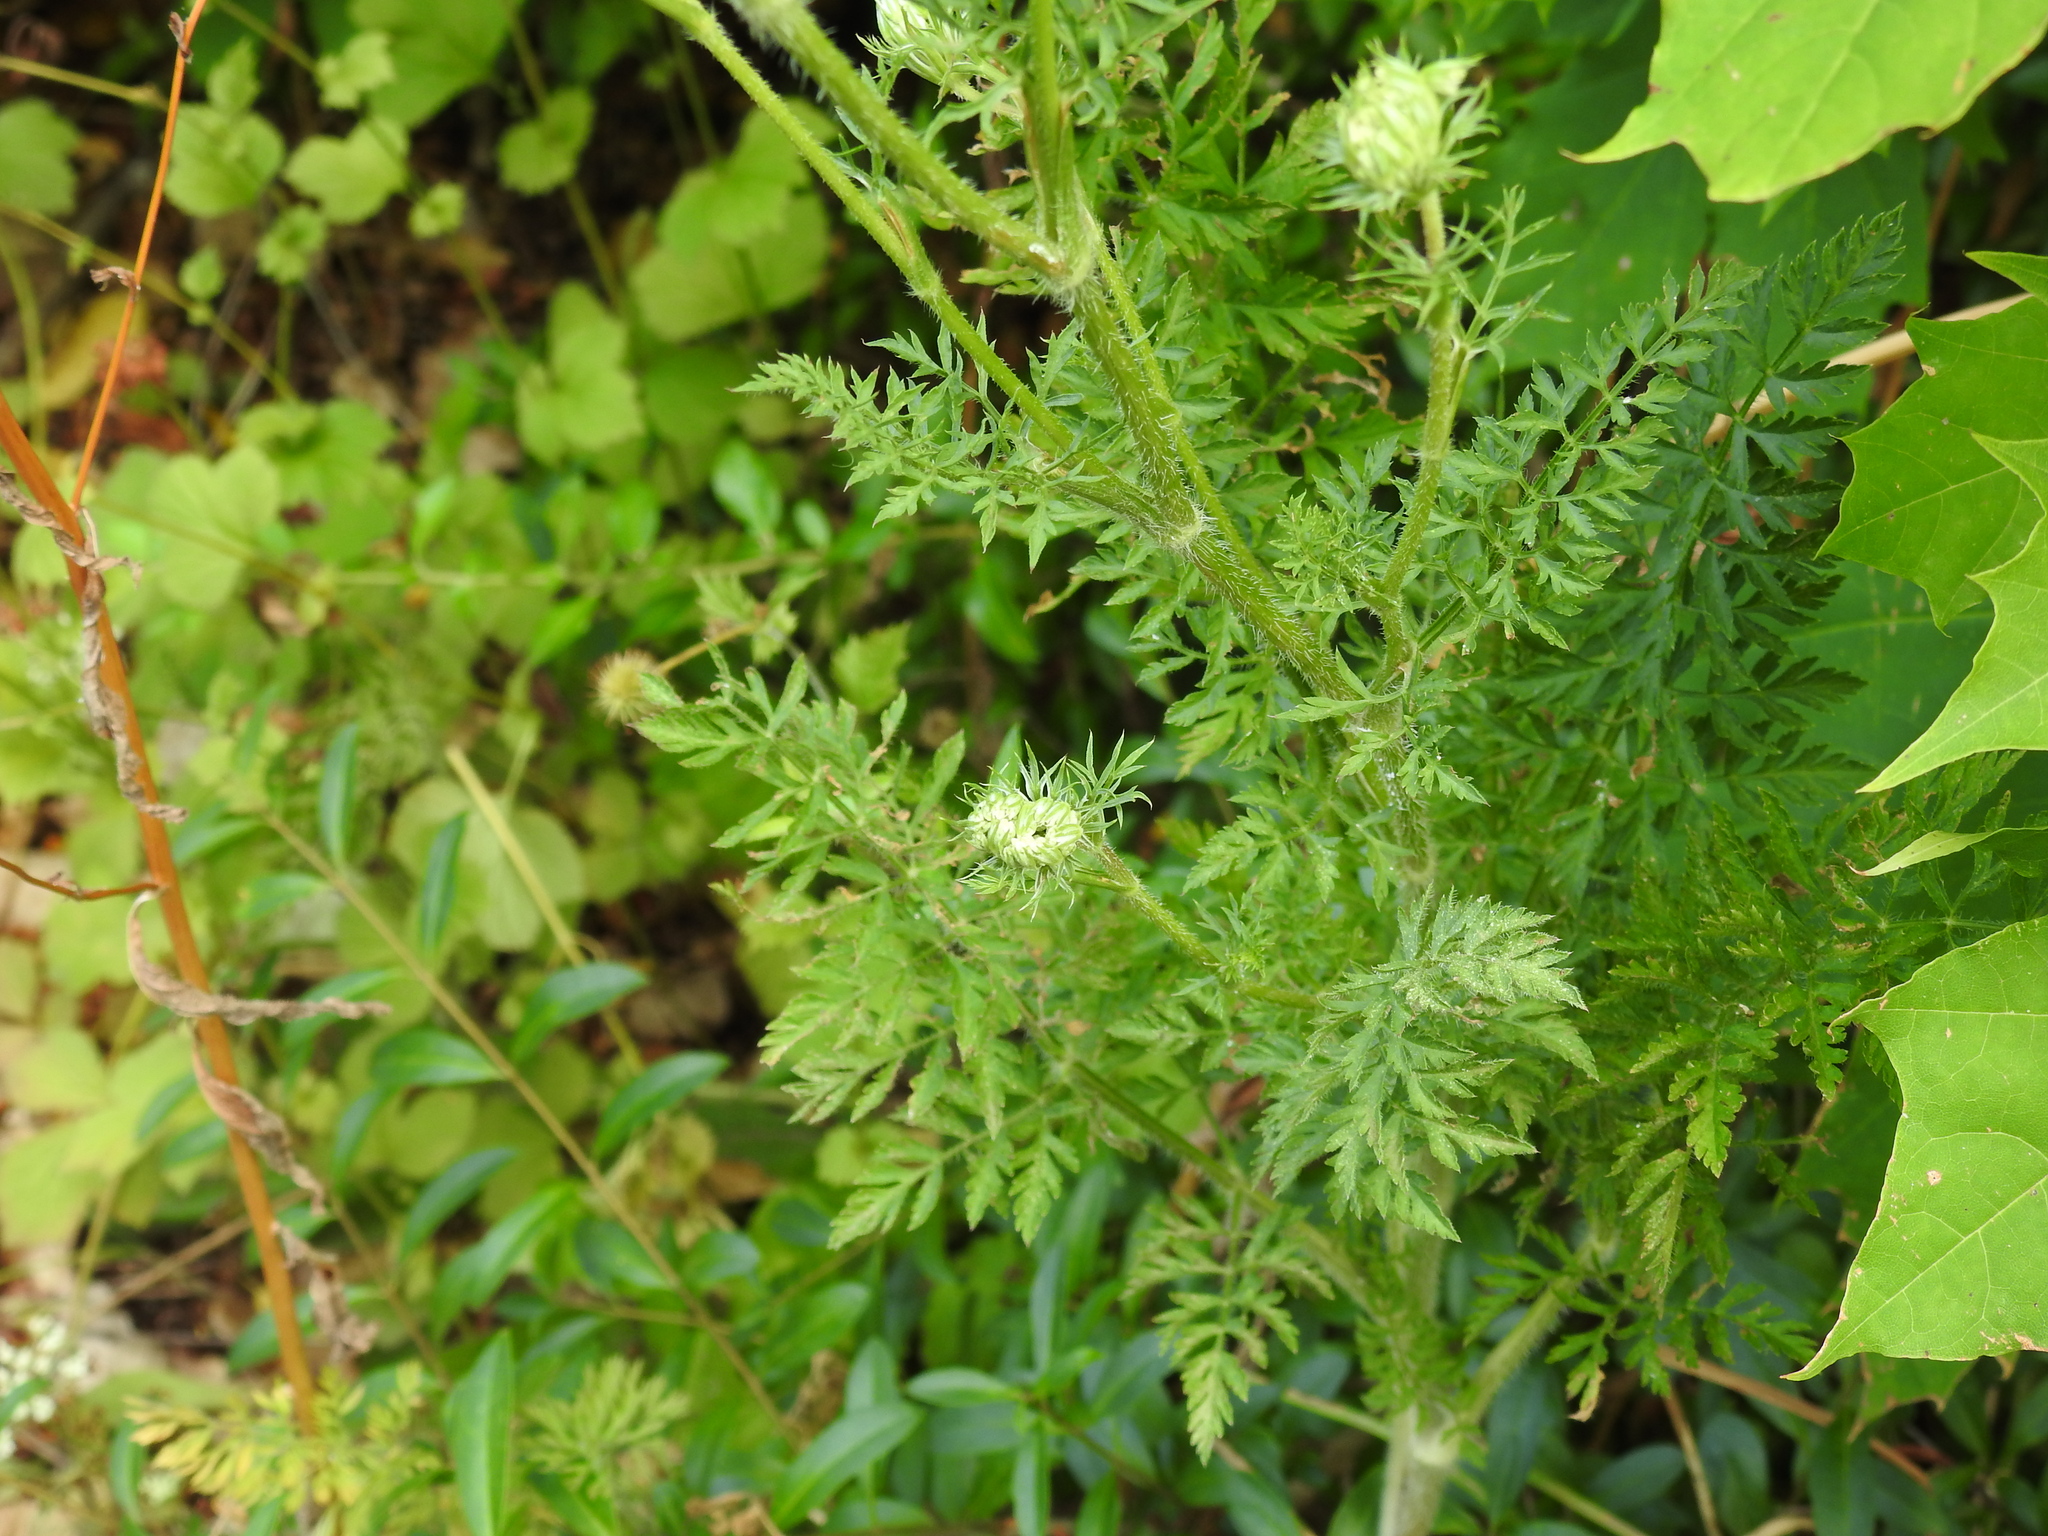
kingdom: Plantae
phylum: Tracheophyta
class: Magnoliopsida
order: Apiales
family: Apiaceae
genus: Daucus
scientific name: Daucus carota
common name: Wild carrot
